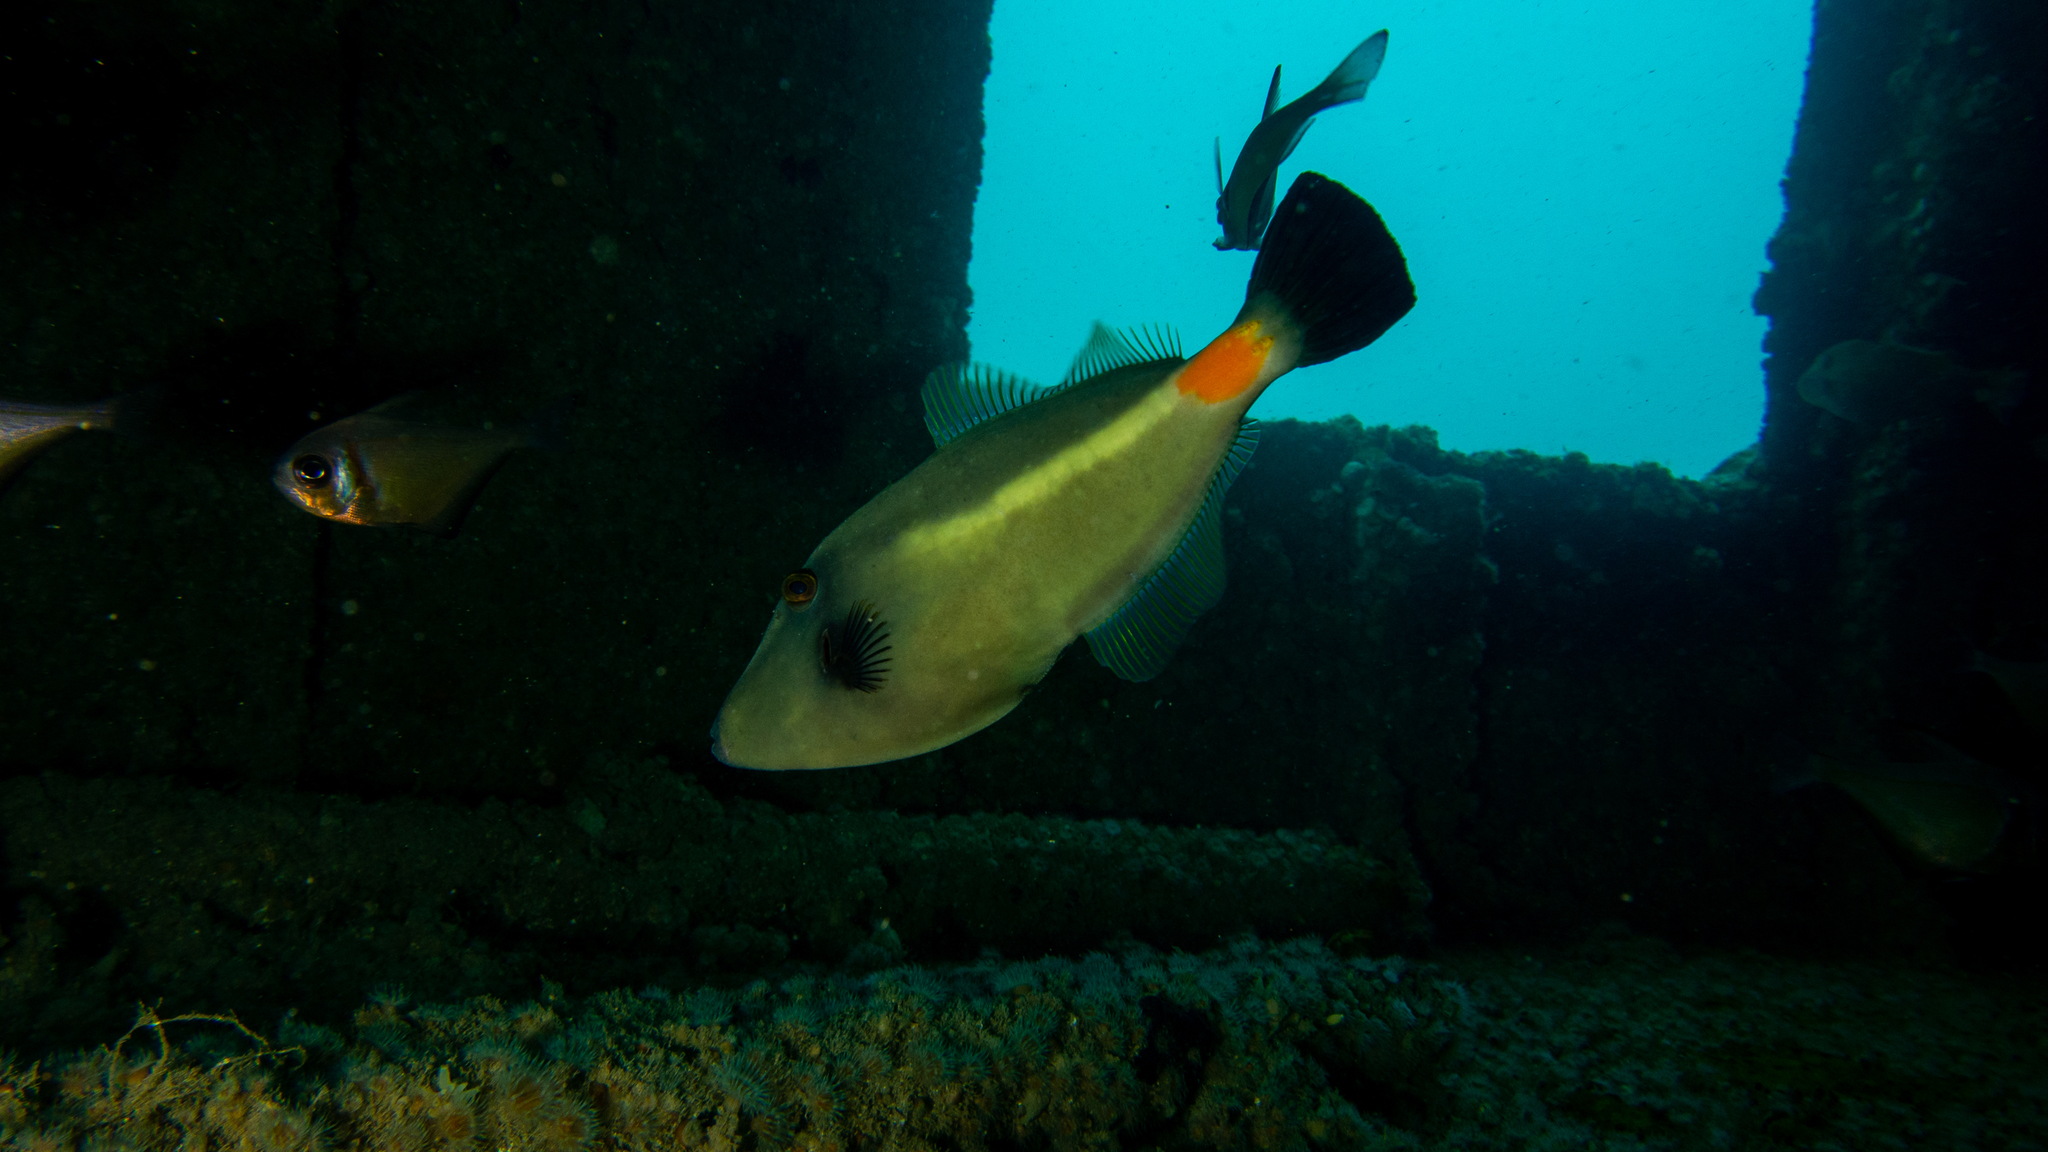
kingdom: Animalia
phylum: Chordata
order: Tetraodontiformes
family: Monacanthidae
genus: Meuschenia
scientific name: Meuschenia flavolineata
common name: Yellowstriped leatherjacket
